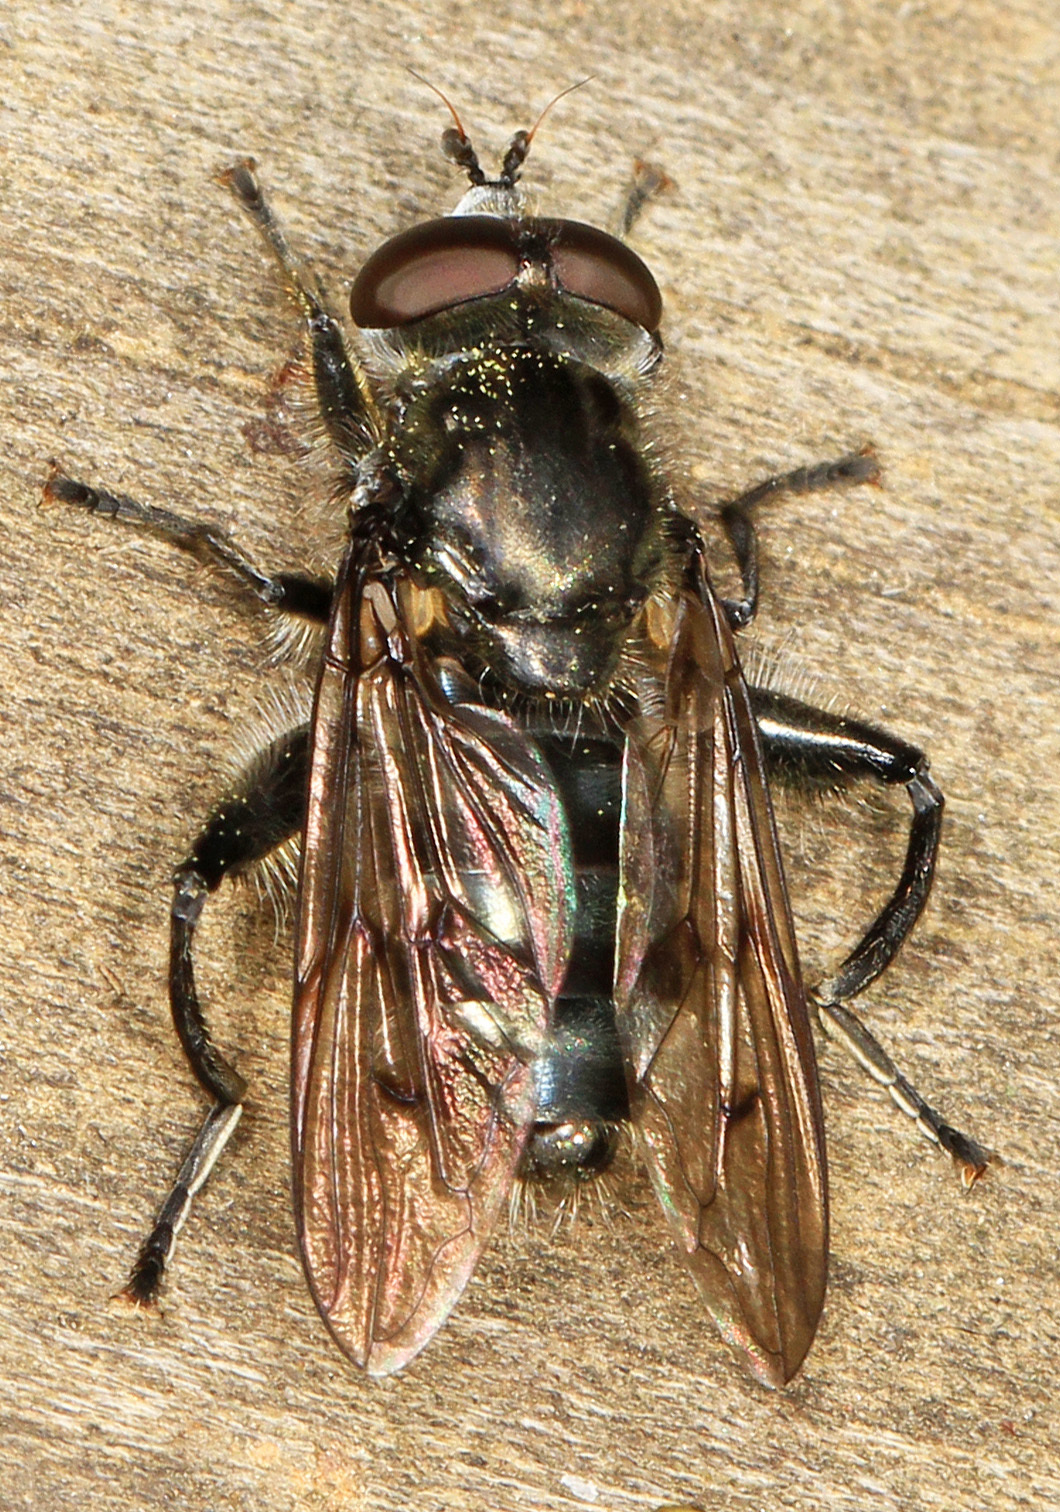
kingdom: Animalia
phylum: Arthropoda
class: Insecta
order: Diptera
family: Syrphidae
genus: Chalcosyrphus
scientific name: Chalcosyrphus metallifer
